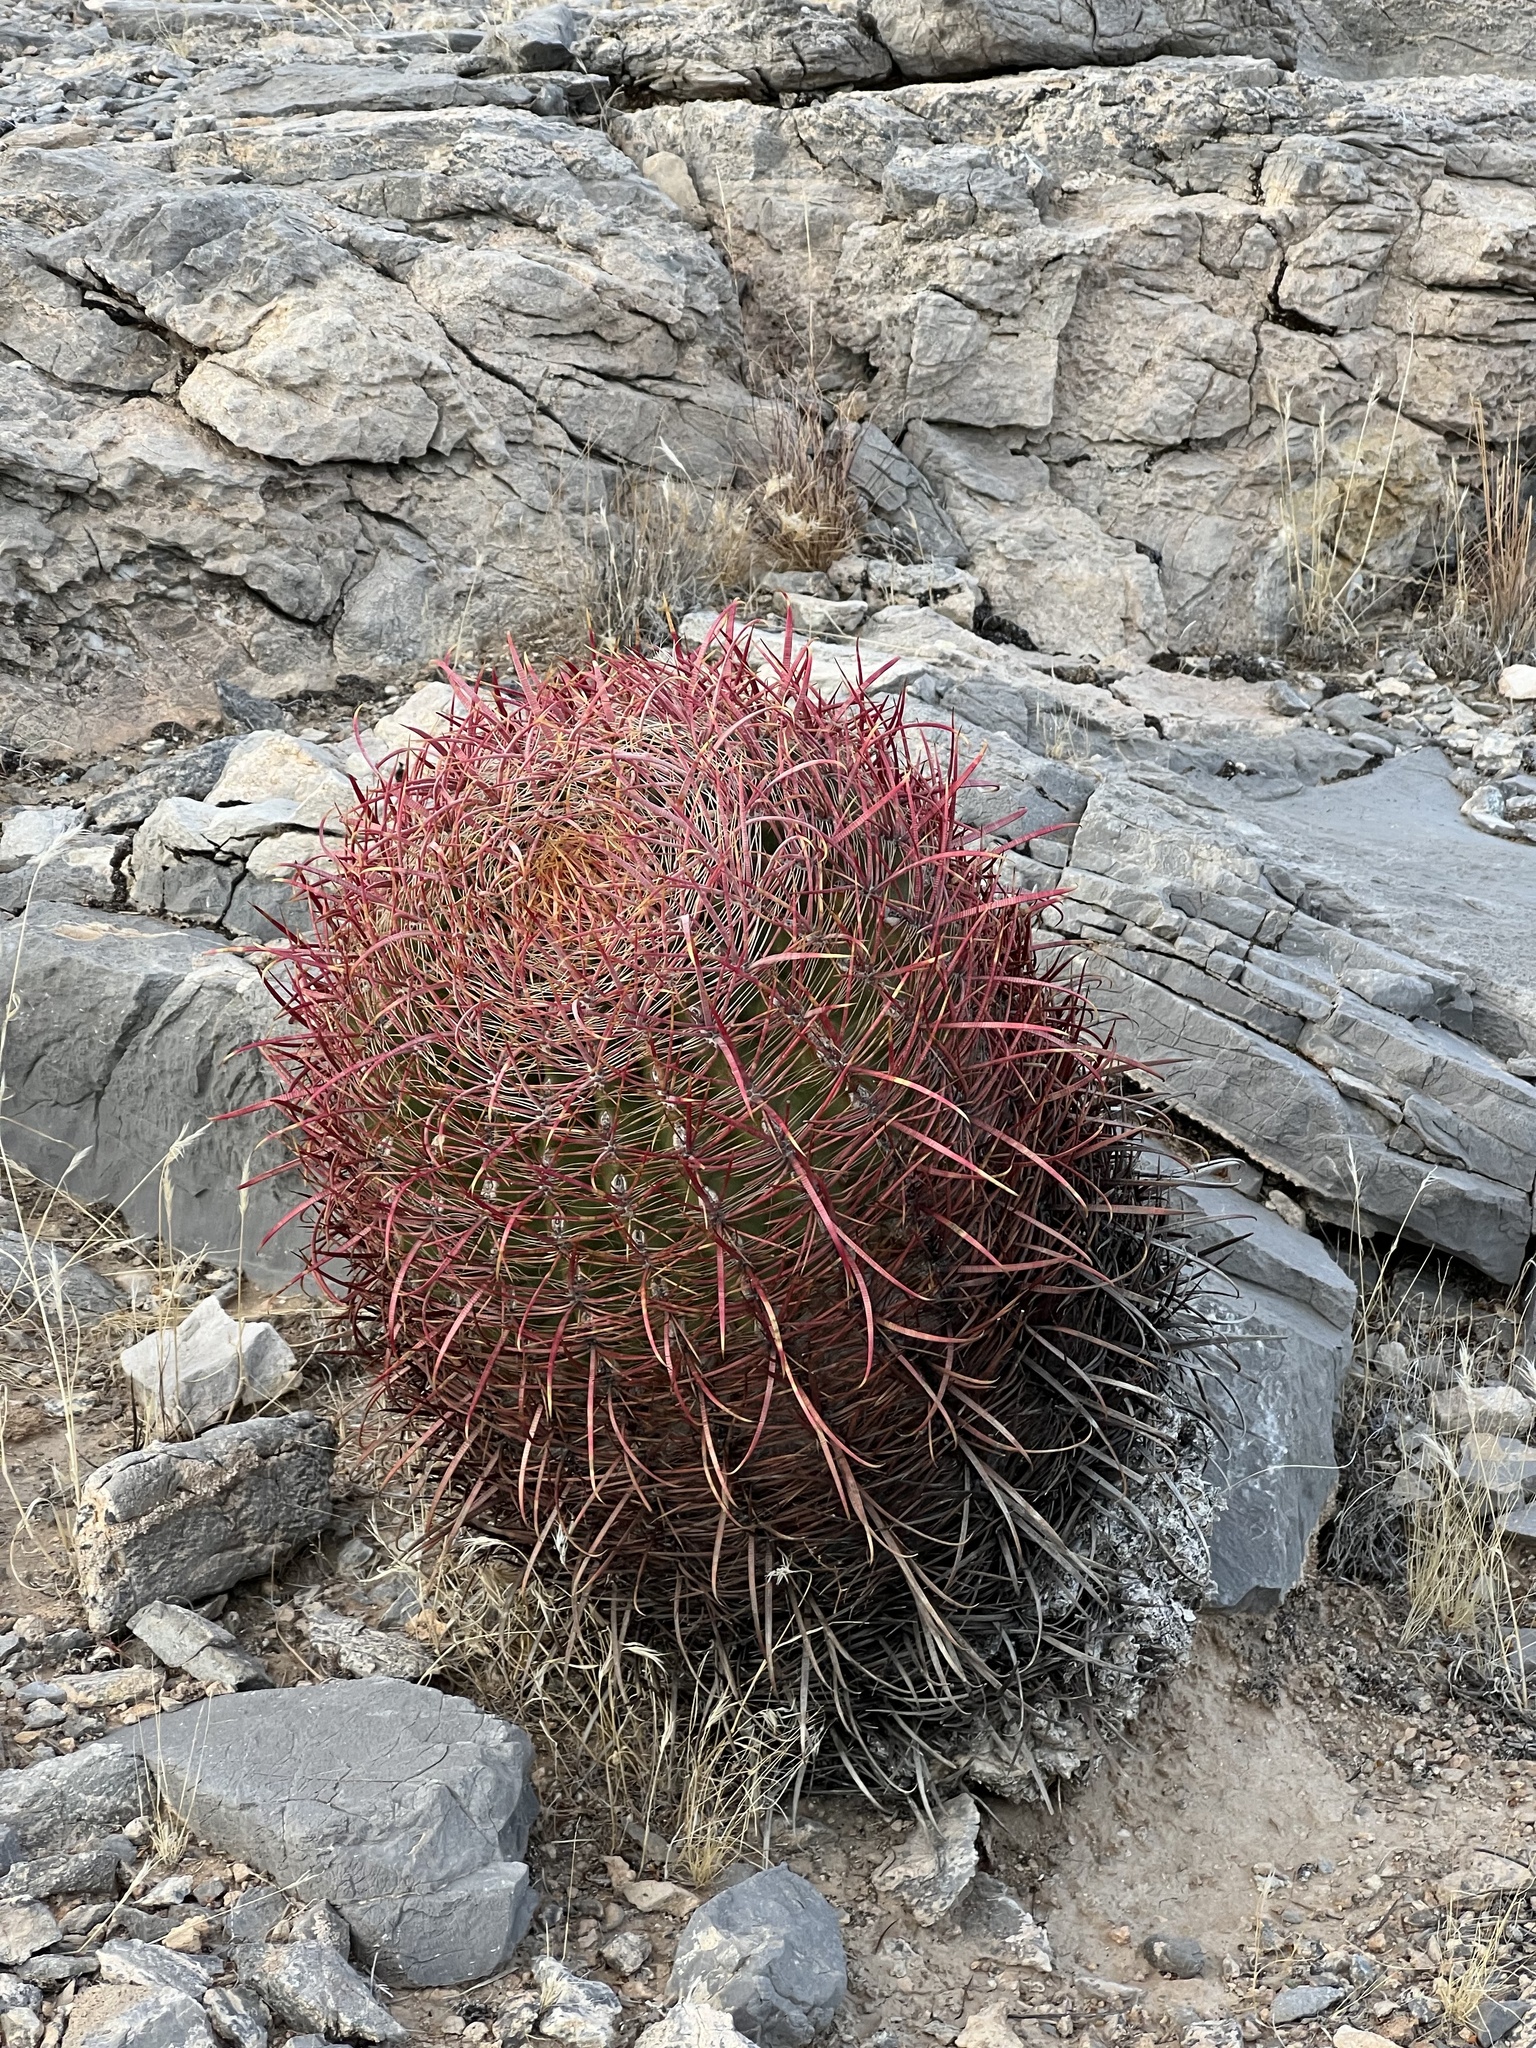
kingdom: Plantae
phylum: Tracheophyta
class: Magnoliopsida
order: Caryophyllales
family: Cactaceae
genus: Ferocactus
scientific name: Ferocactus cylindraceus
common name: California barrel cactus
